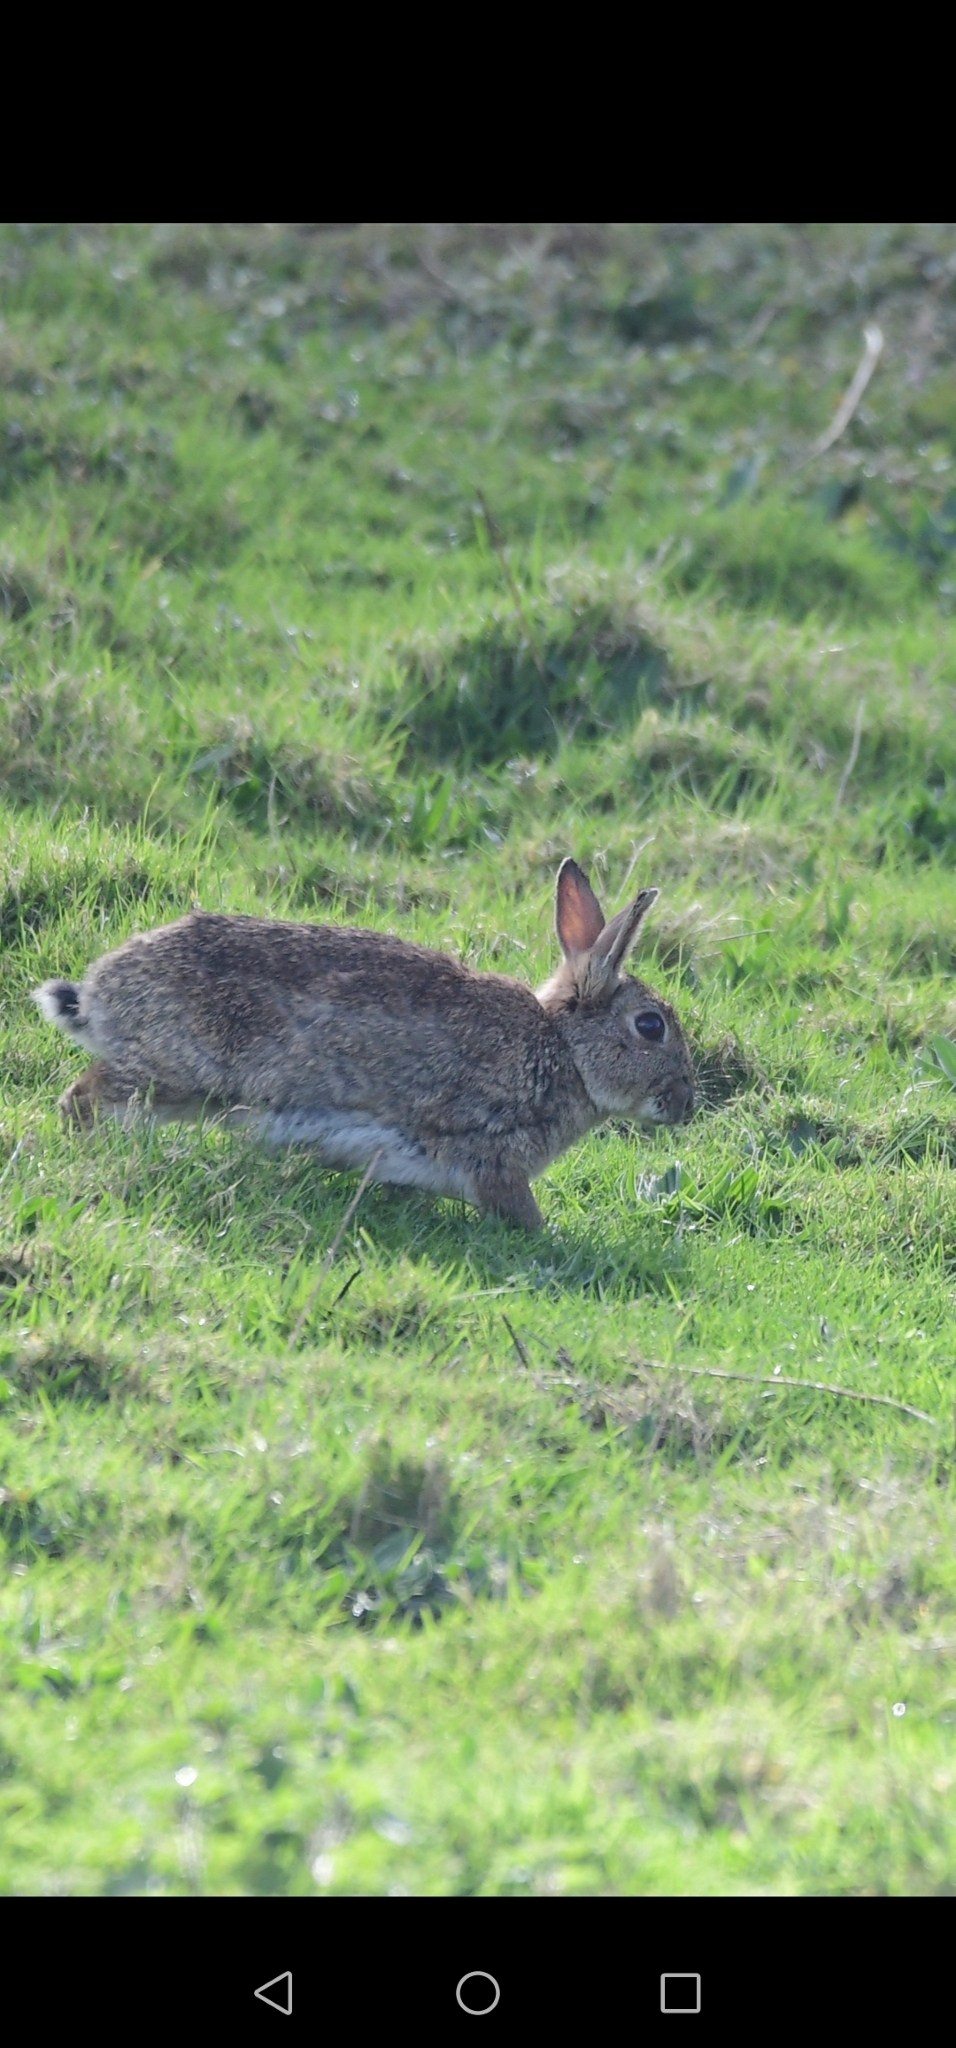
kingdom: Animalia
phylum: Chordata
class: Mammalia
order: Lagomorpha
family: Leporidae
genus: Oryctolagus
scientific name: Oryctolagus cuniculus
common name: European rabbit
